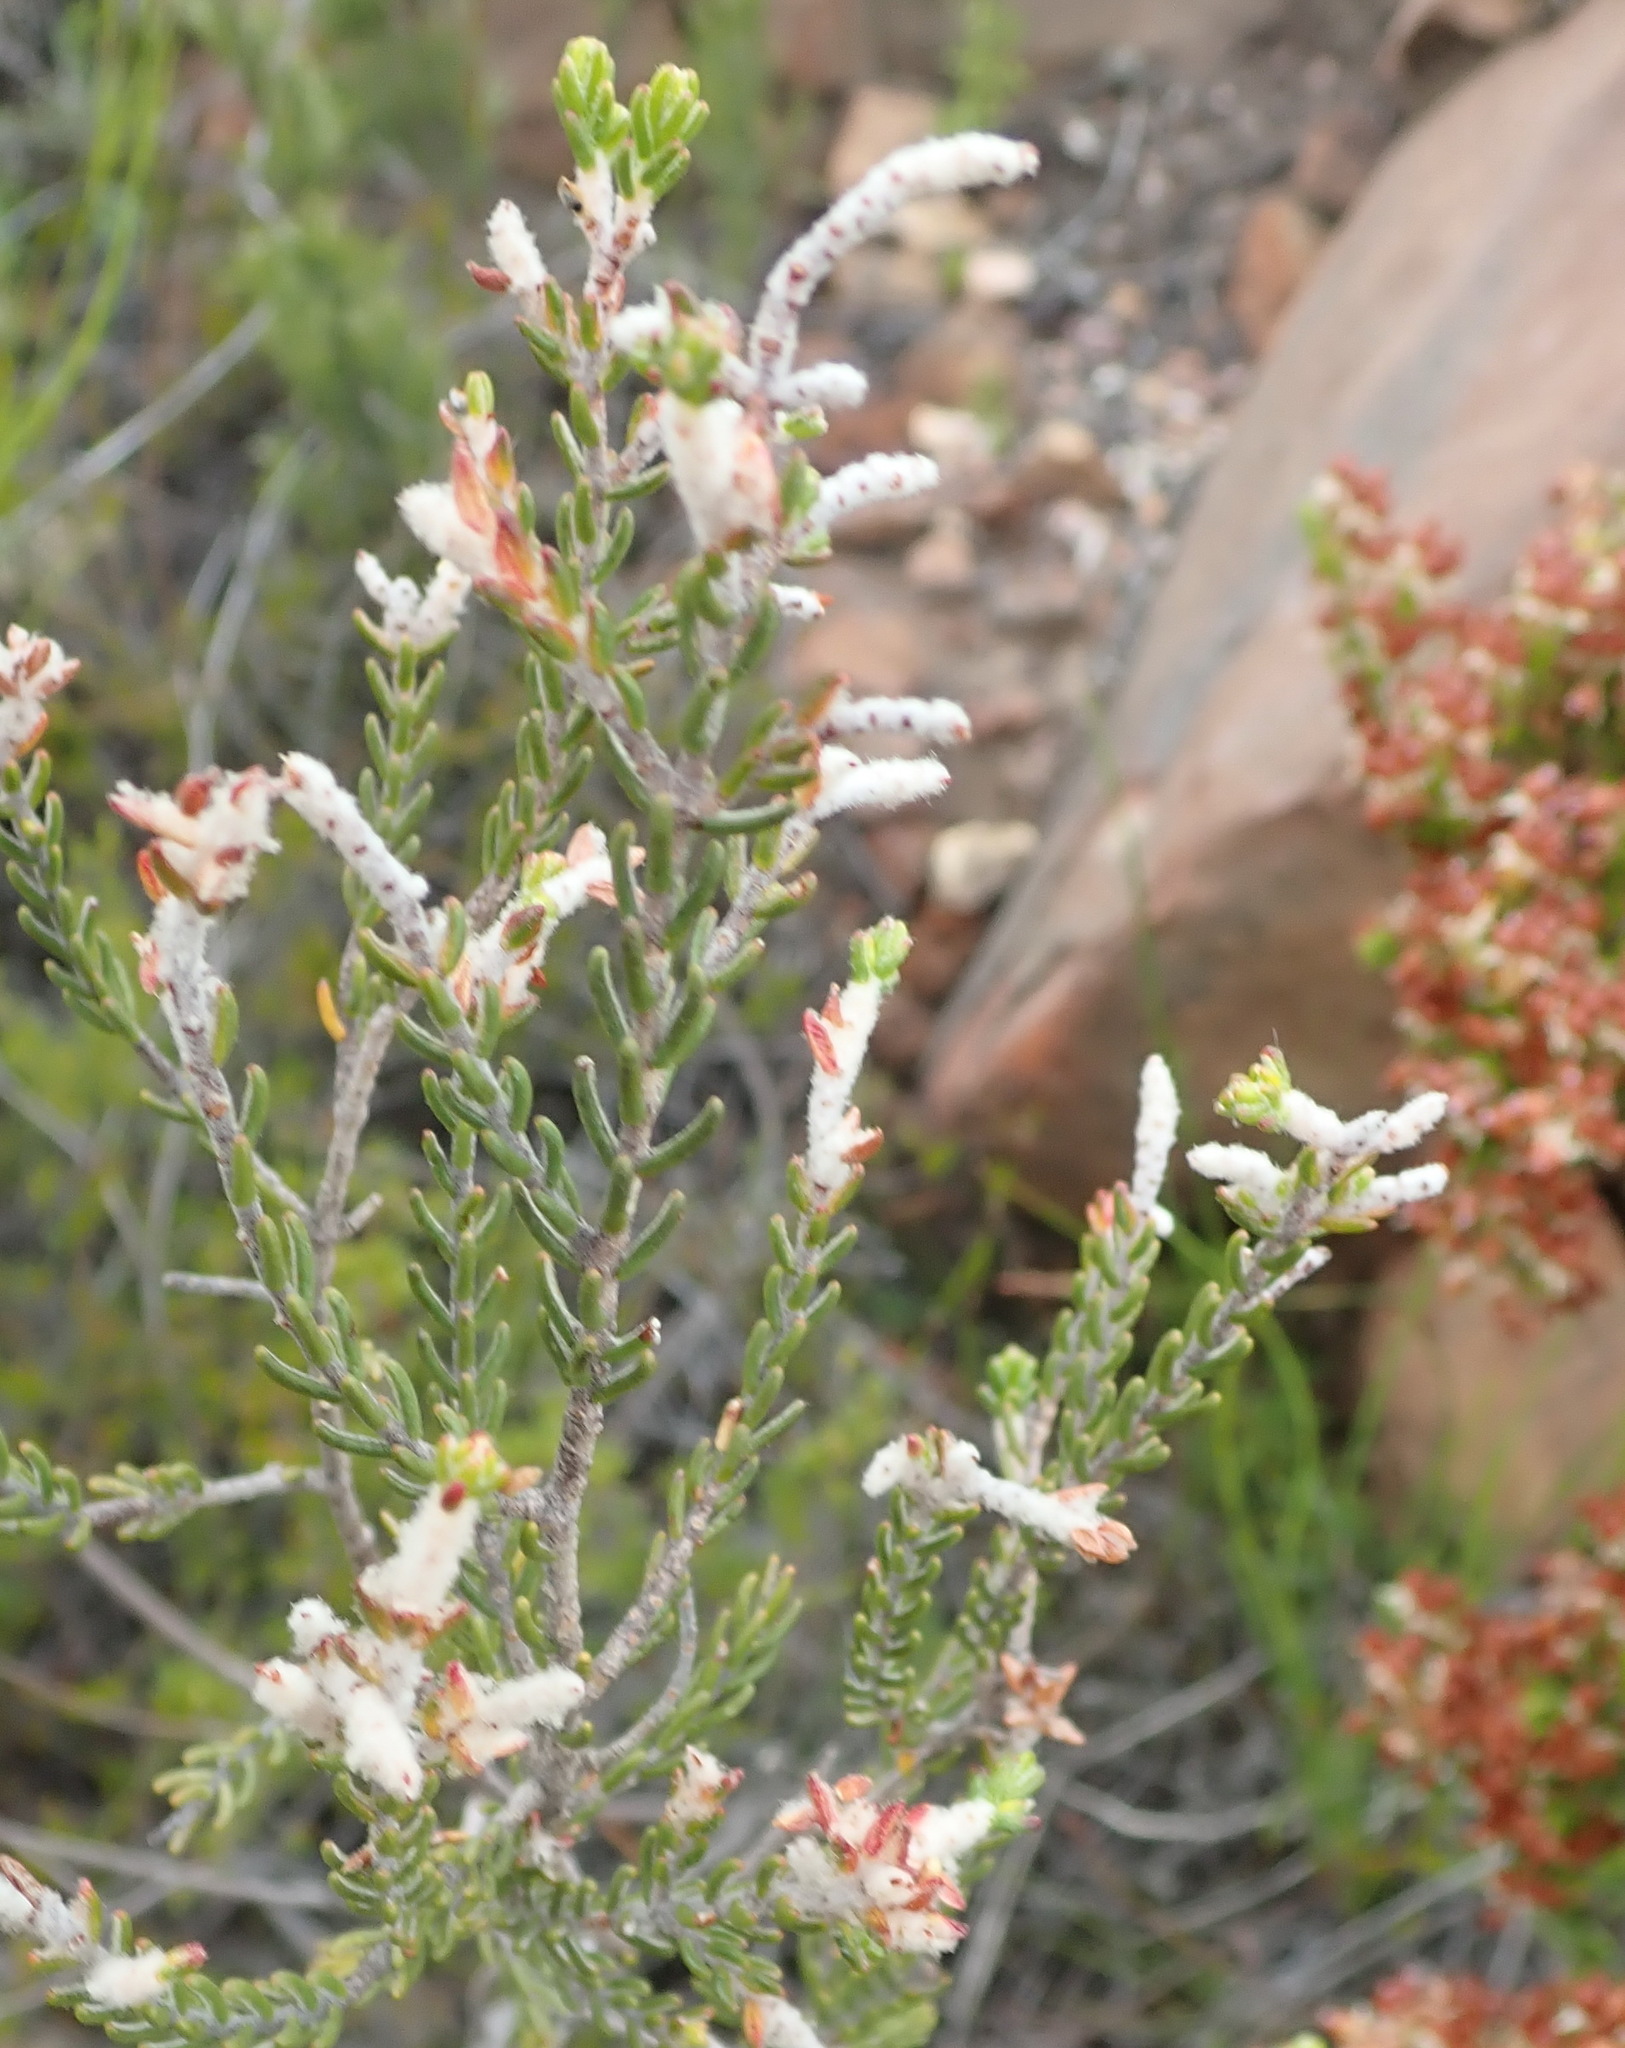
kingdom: Plantae
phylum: Tracheophyta
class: Magnoliopsida
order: Malvales
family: Thymelaeaceae
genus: Passerina
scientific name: Passerina obtusifolia
